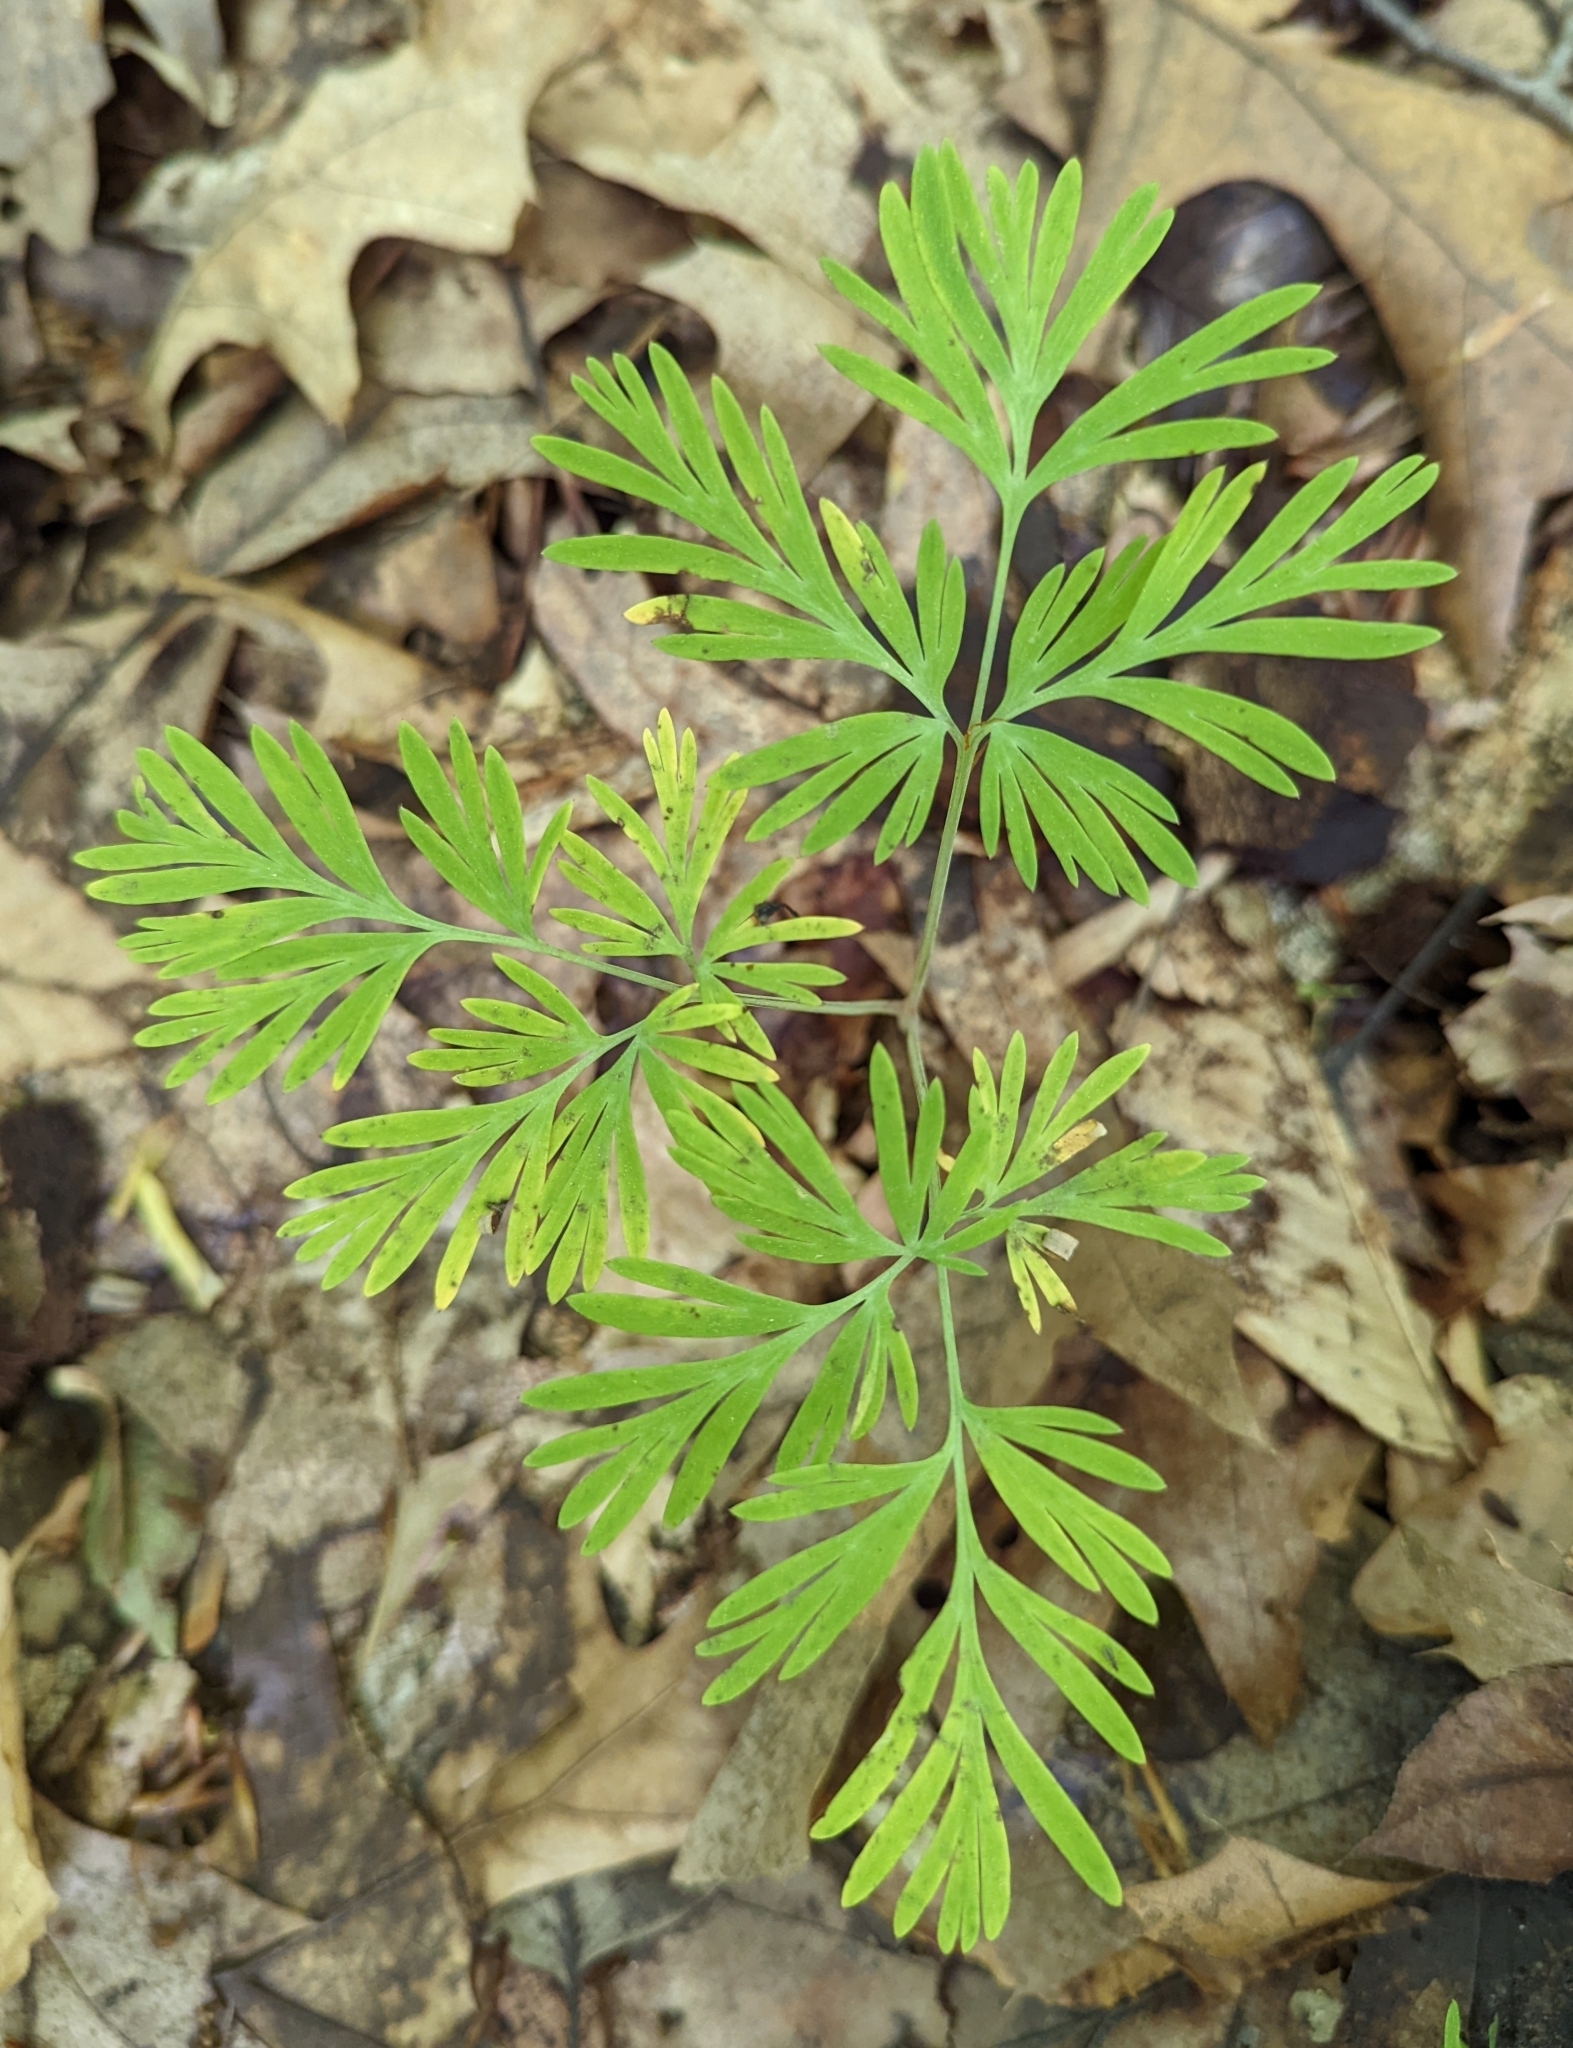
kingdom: Plantae
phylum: Tracheophyta
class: Magnoliopsida
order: Ranunculales
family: Papaveraceae
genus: Dicentra
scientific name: Dicentra
